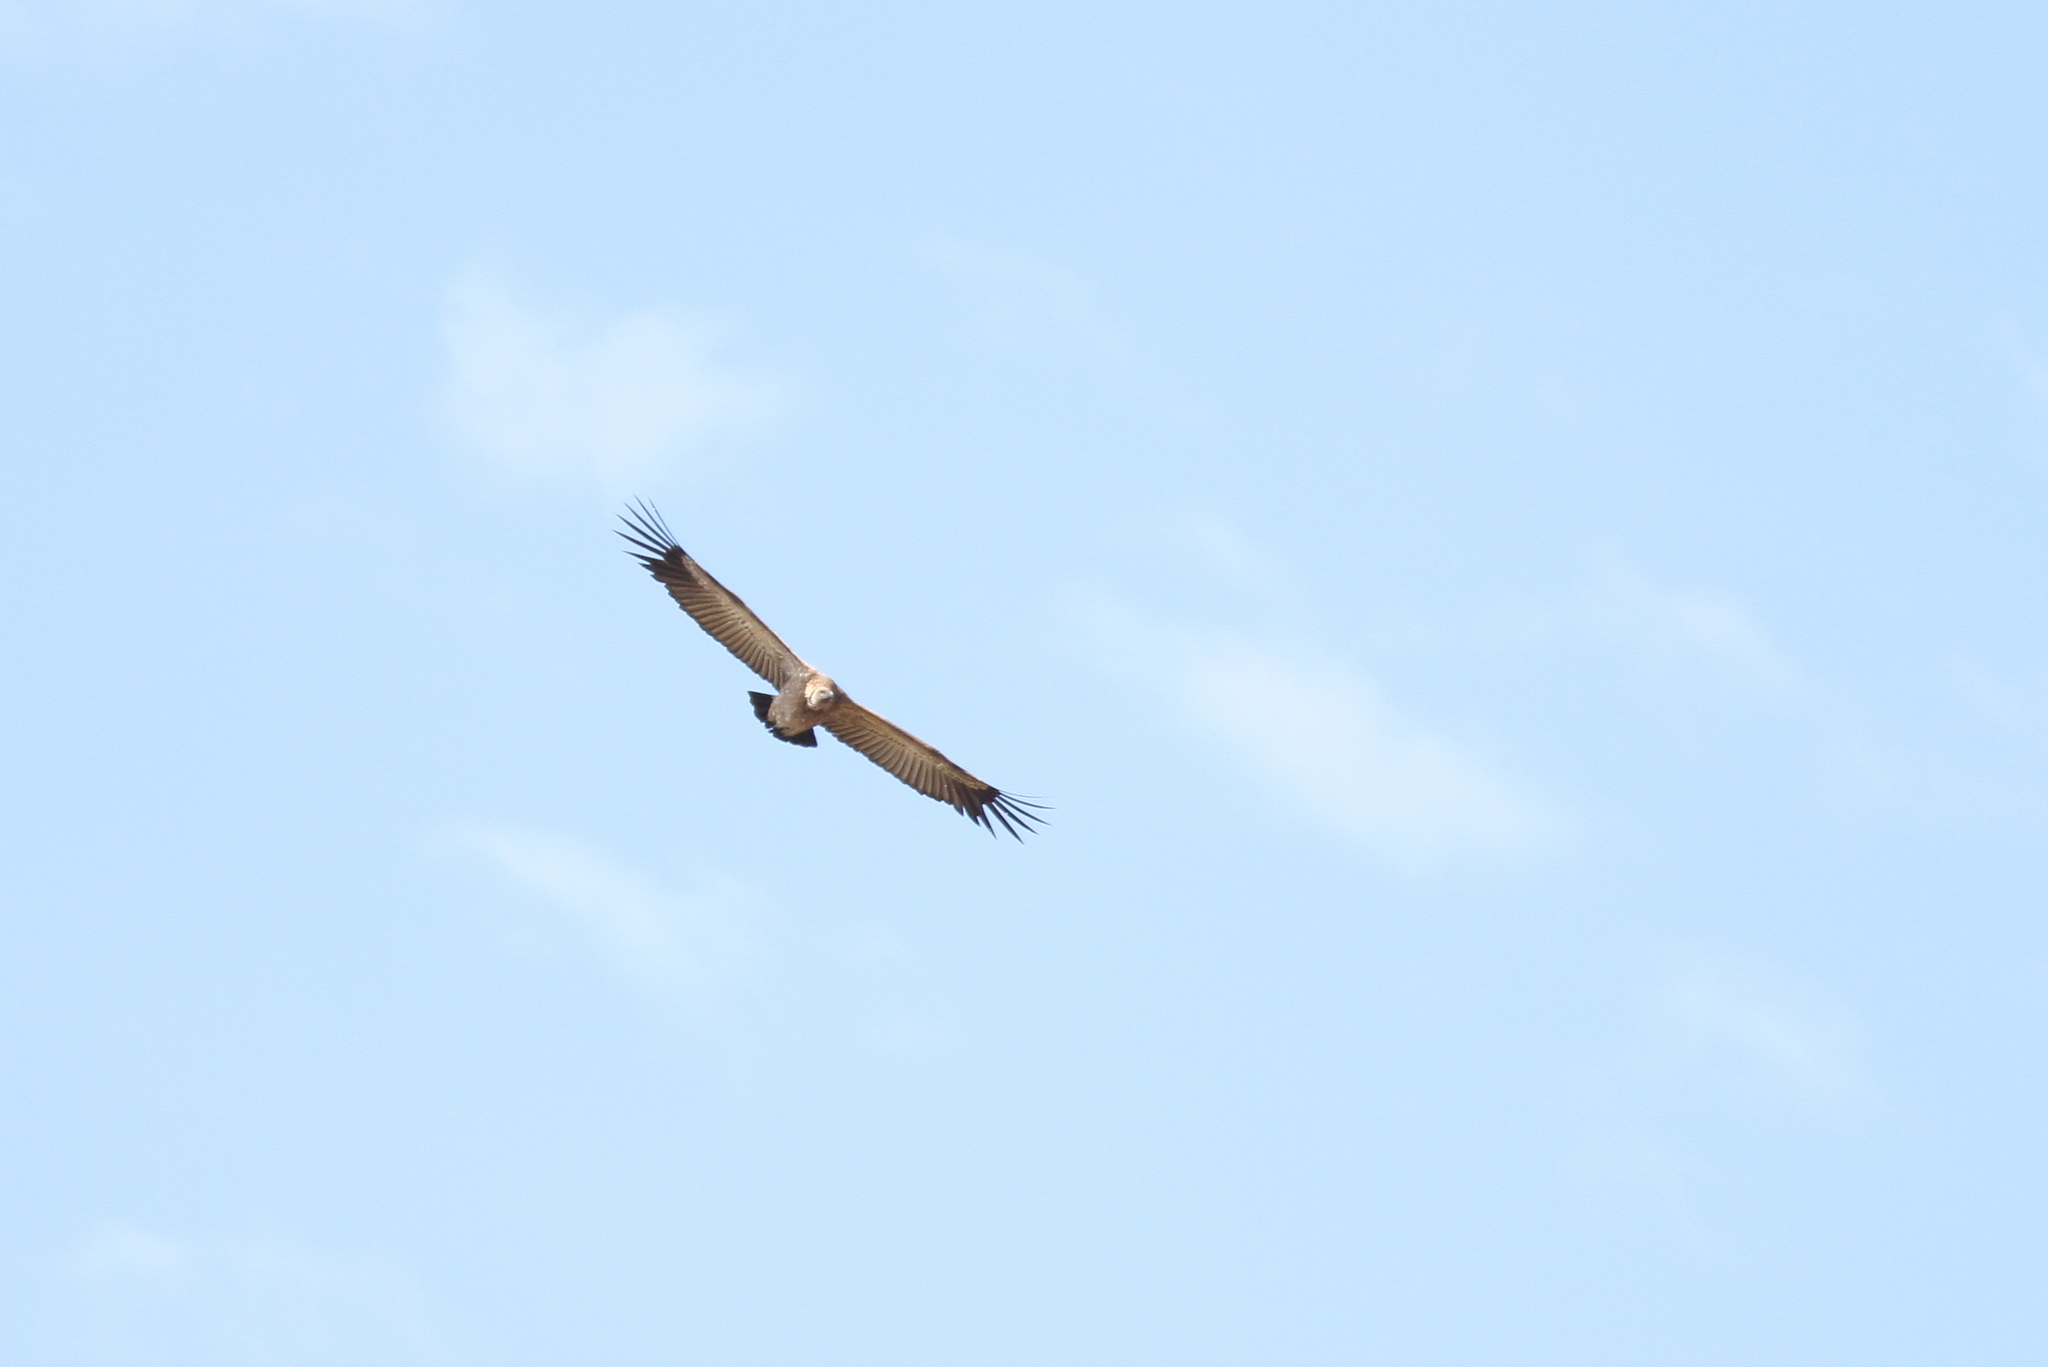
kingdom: Animalia
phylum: Chordata
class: Aves
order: Accipitriformes
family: Accipitridae
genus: Gyps
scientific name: Gyps coprotheres
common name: Cape vulture
